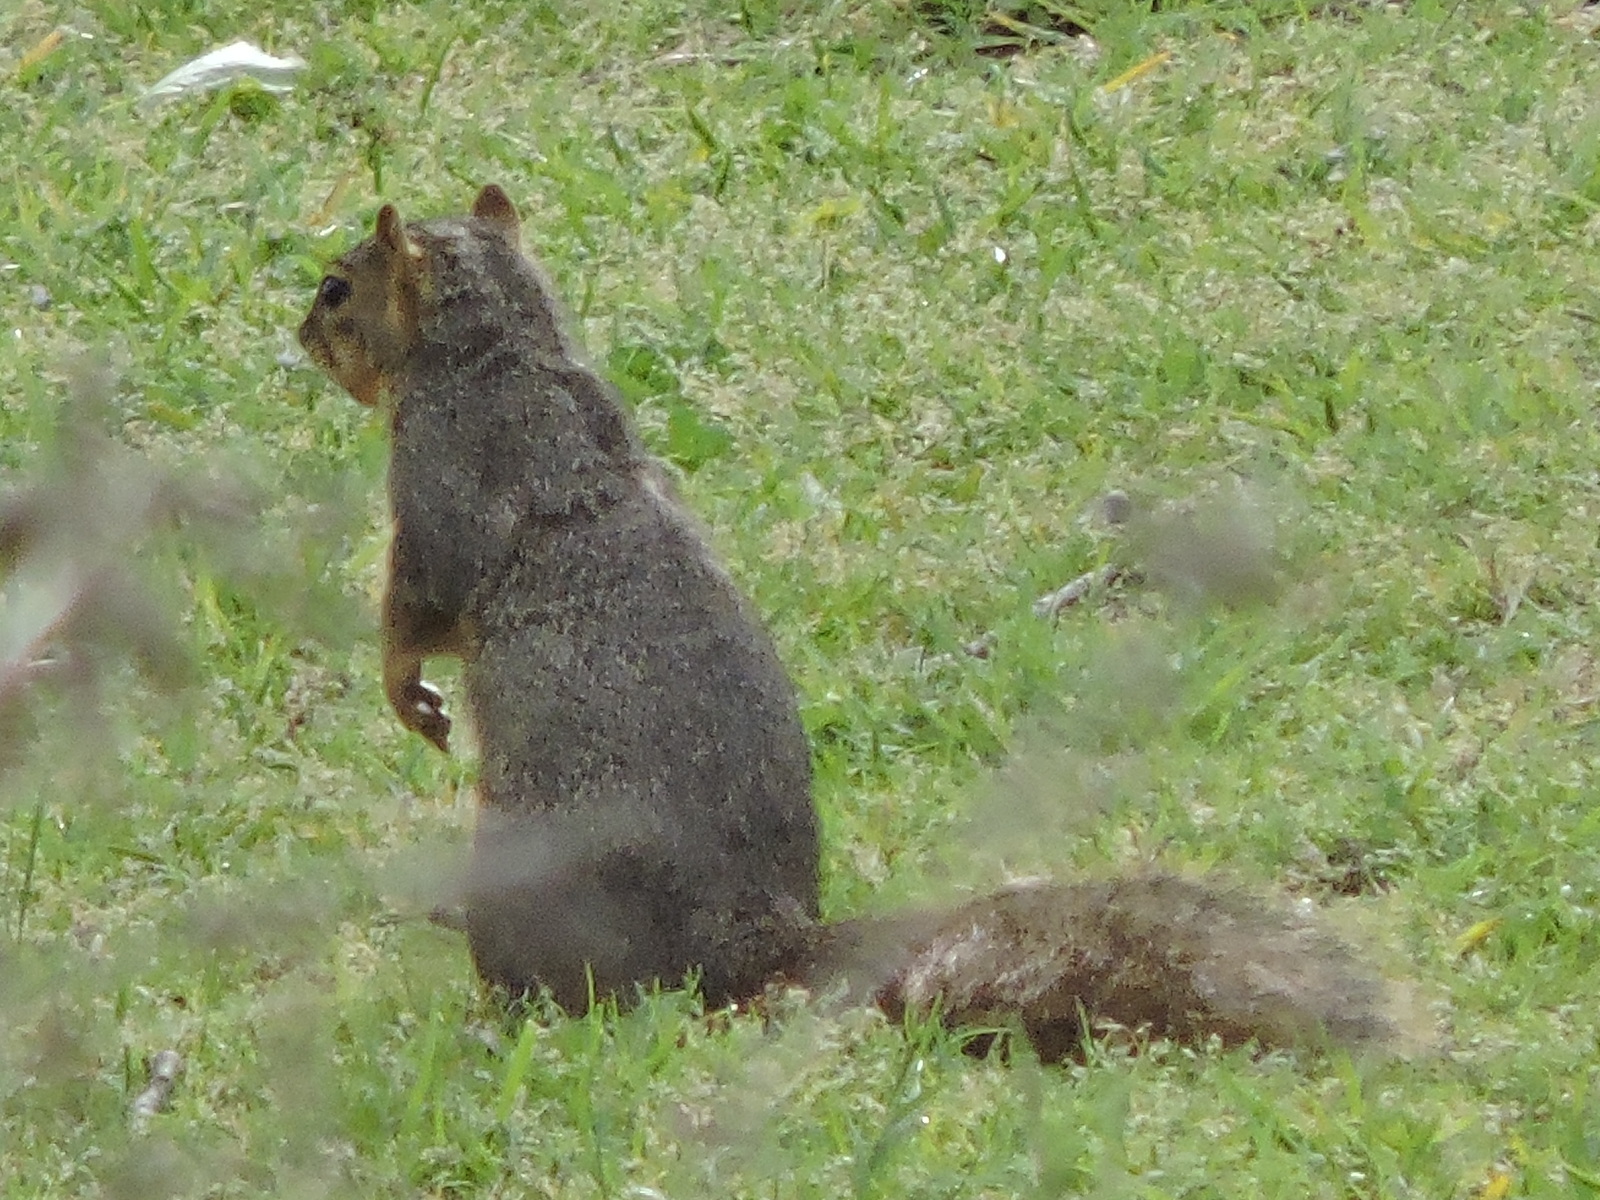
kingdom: Animalia
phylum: Chordata
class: Mammalia
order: Rodentia
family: Sciuridae
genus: Sciurus
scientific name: Sciurus niger
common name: Fox squirrel
